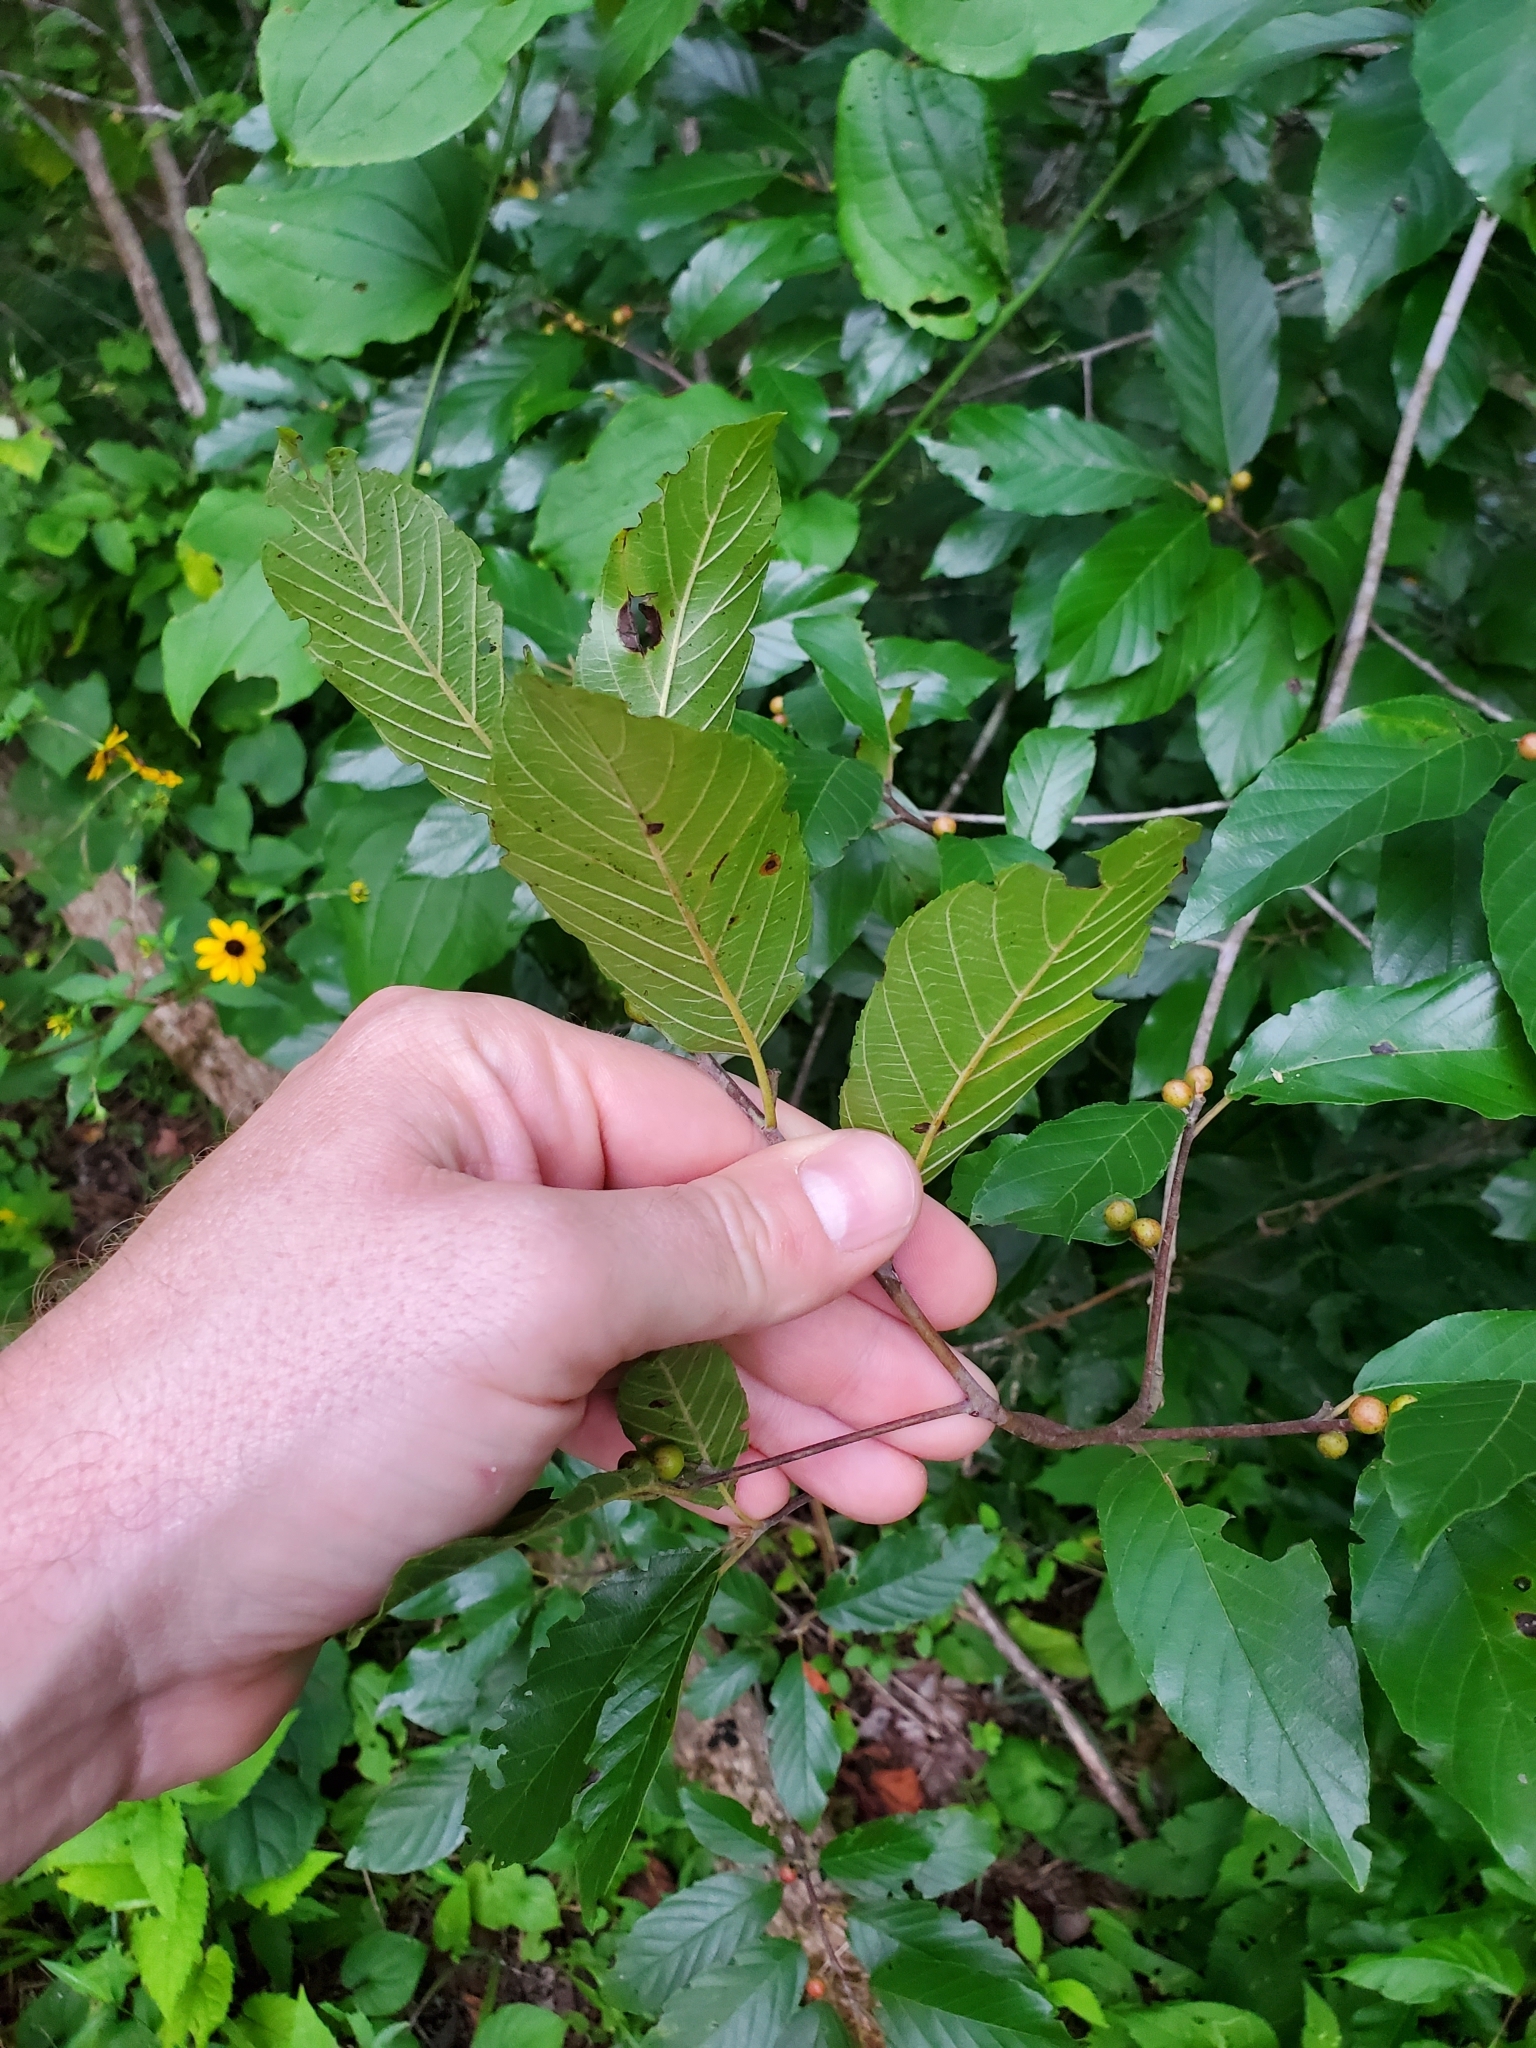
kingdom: Plantae
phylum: Tracheophyta
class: Magnoliopsida
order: Rosales
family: Rhamnaceae
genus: Frangula
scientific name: Frangula caroliniana
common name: Carolina buckthorn
